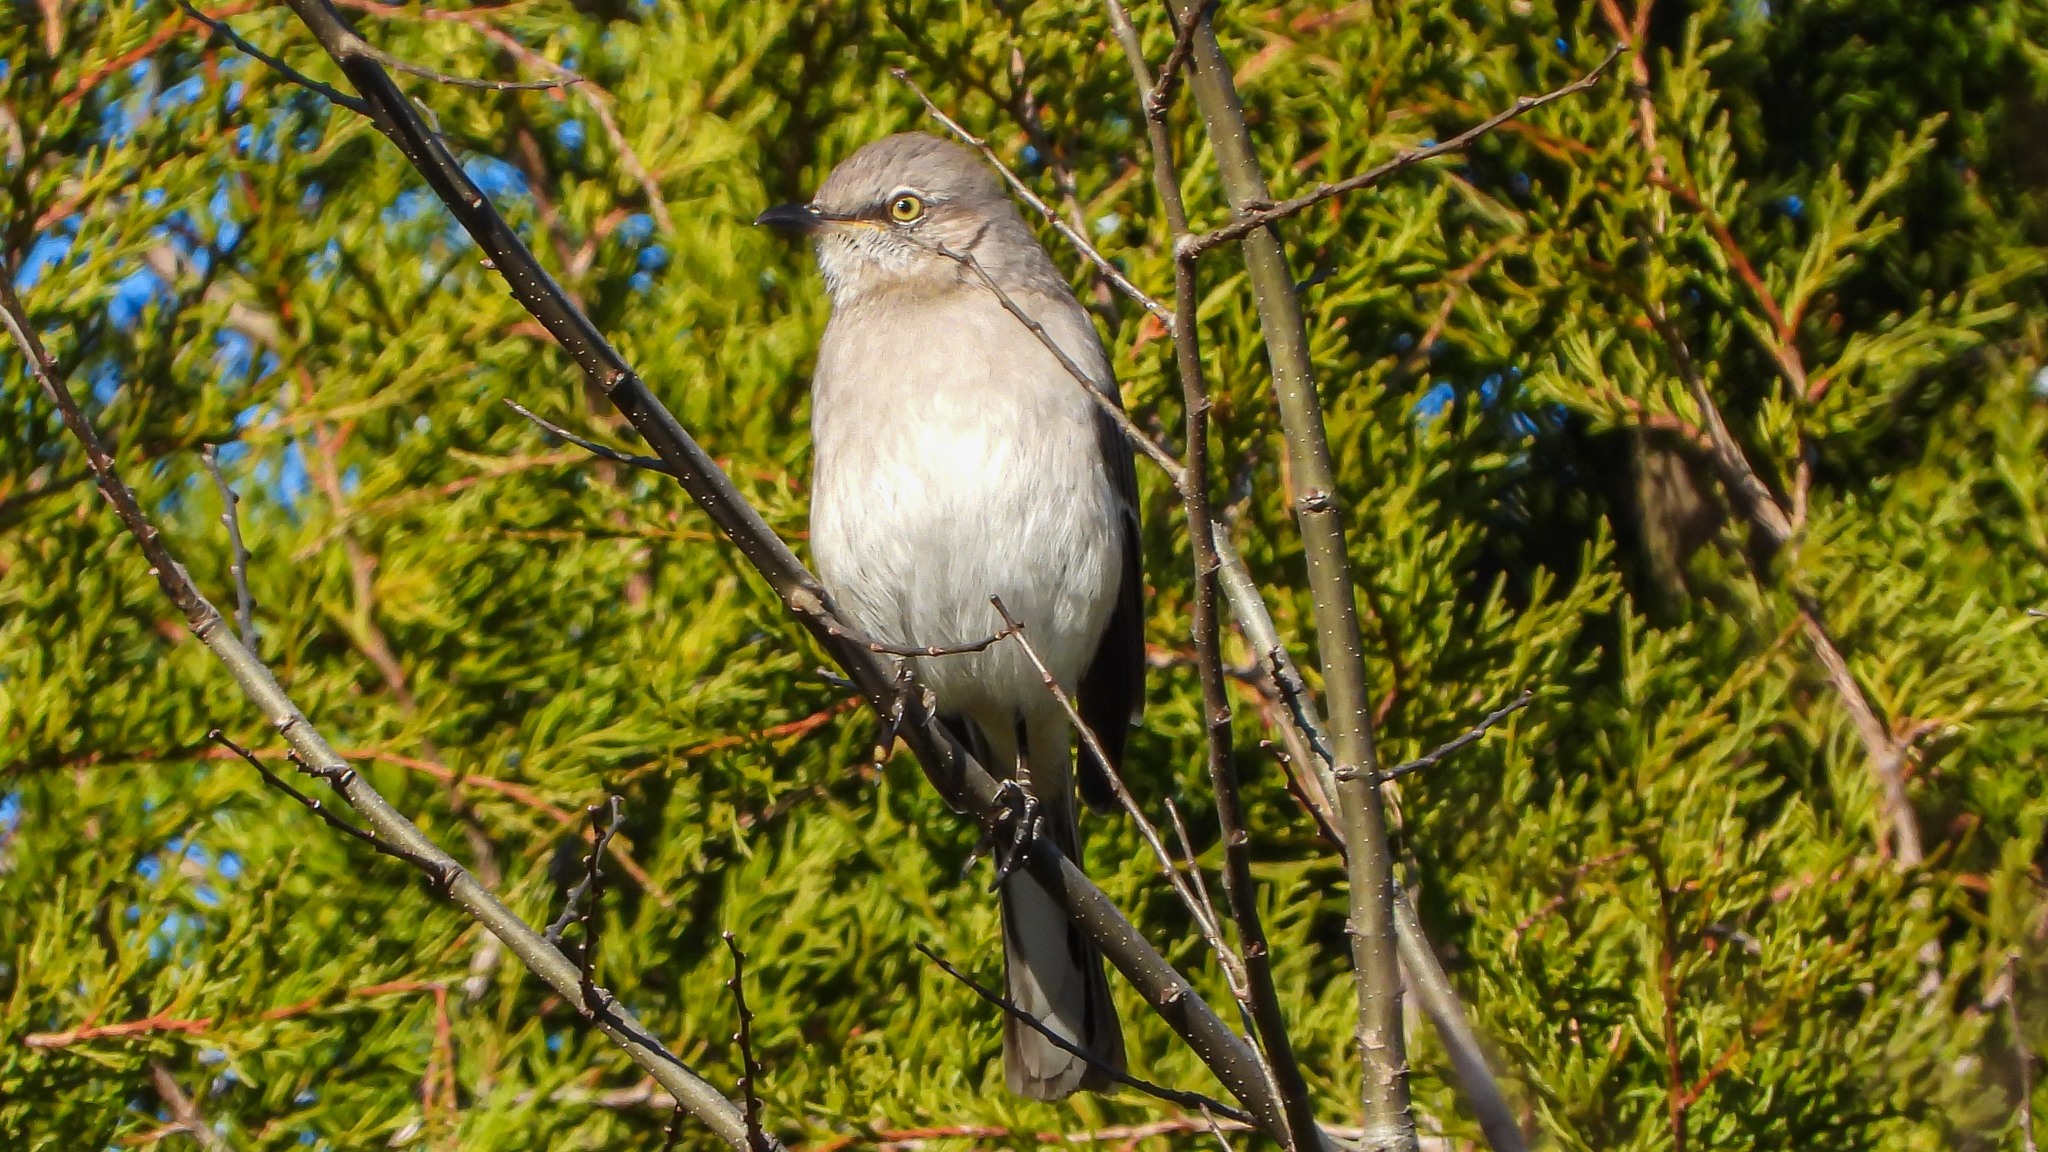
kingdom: Animalia
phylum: Chordata
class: Aves
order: Passeriformes
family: Mimidae
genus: Mimus
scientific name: Mimus polyglottos
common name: Northern mockingbird
